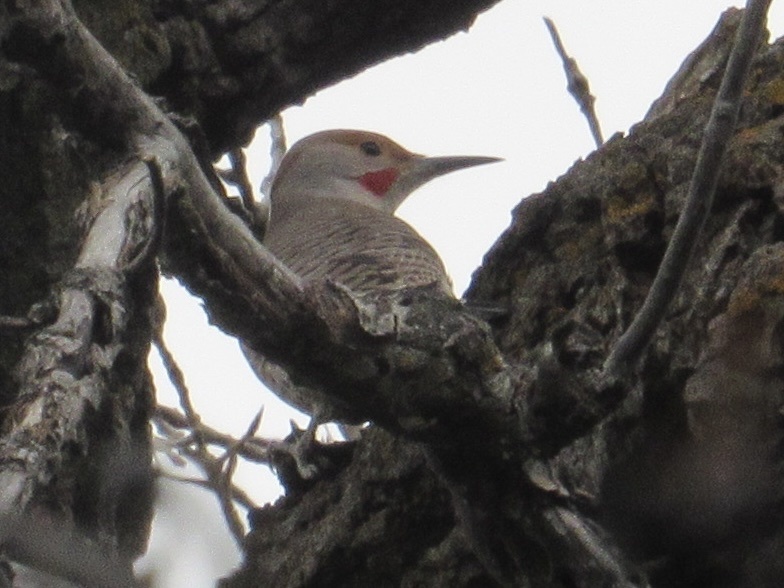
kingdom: Animalia
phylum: Chordata
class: Aves
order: Piciformes
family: Picidae
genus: Colaptes
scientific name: Colaptes auratus
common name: Northern flicker
